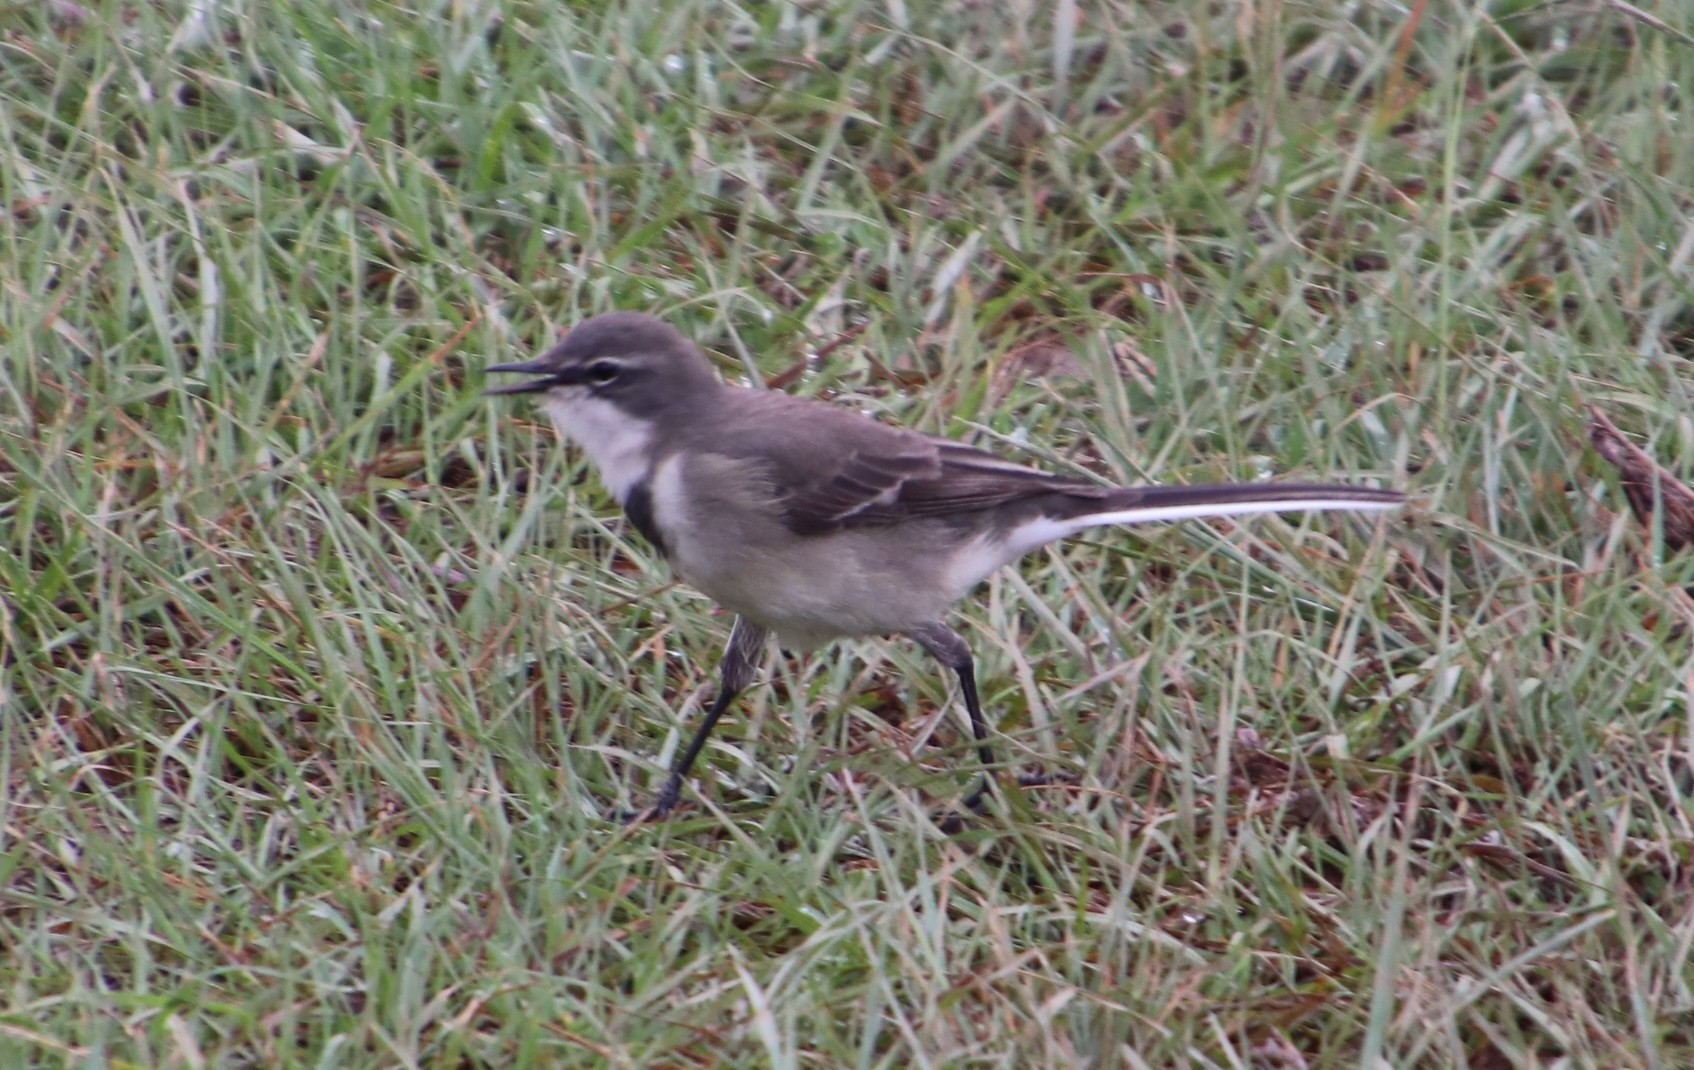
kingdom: Animalia
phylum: Chordata
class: Aves
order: Passeriformes
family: Motacillidae
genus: Motacilla
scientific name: Motacilla capensis
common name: Cape wagtail
